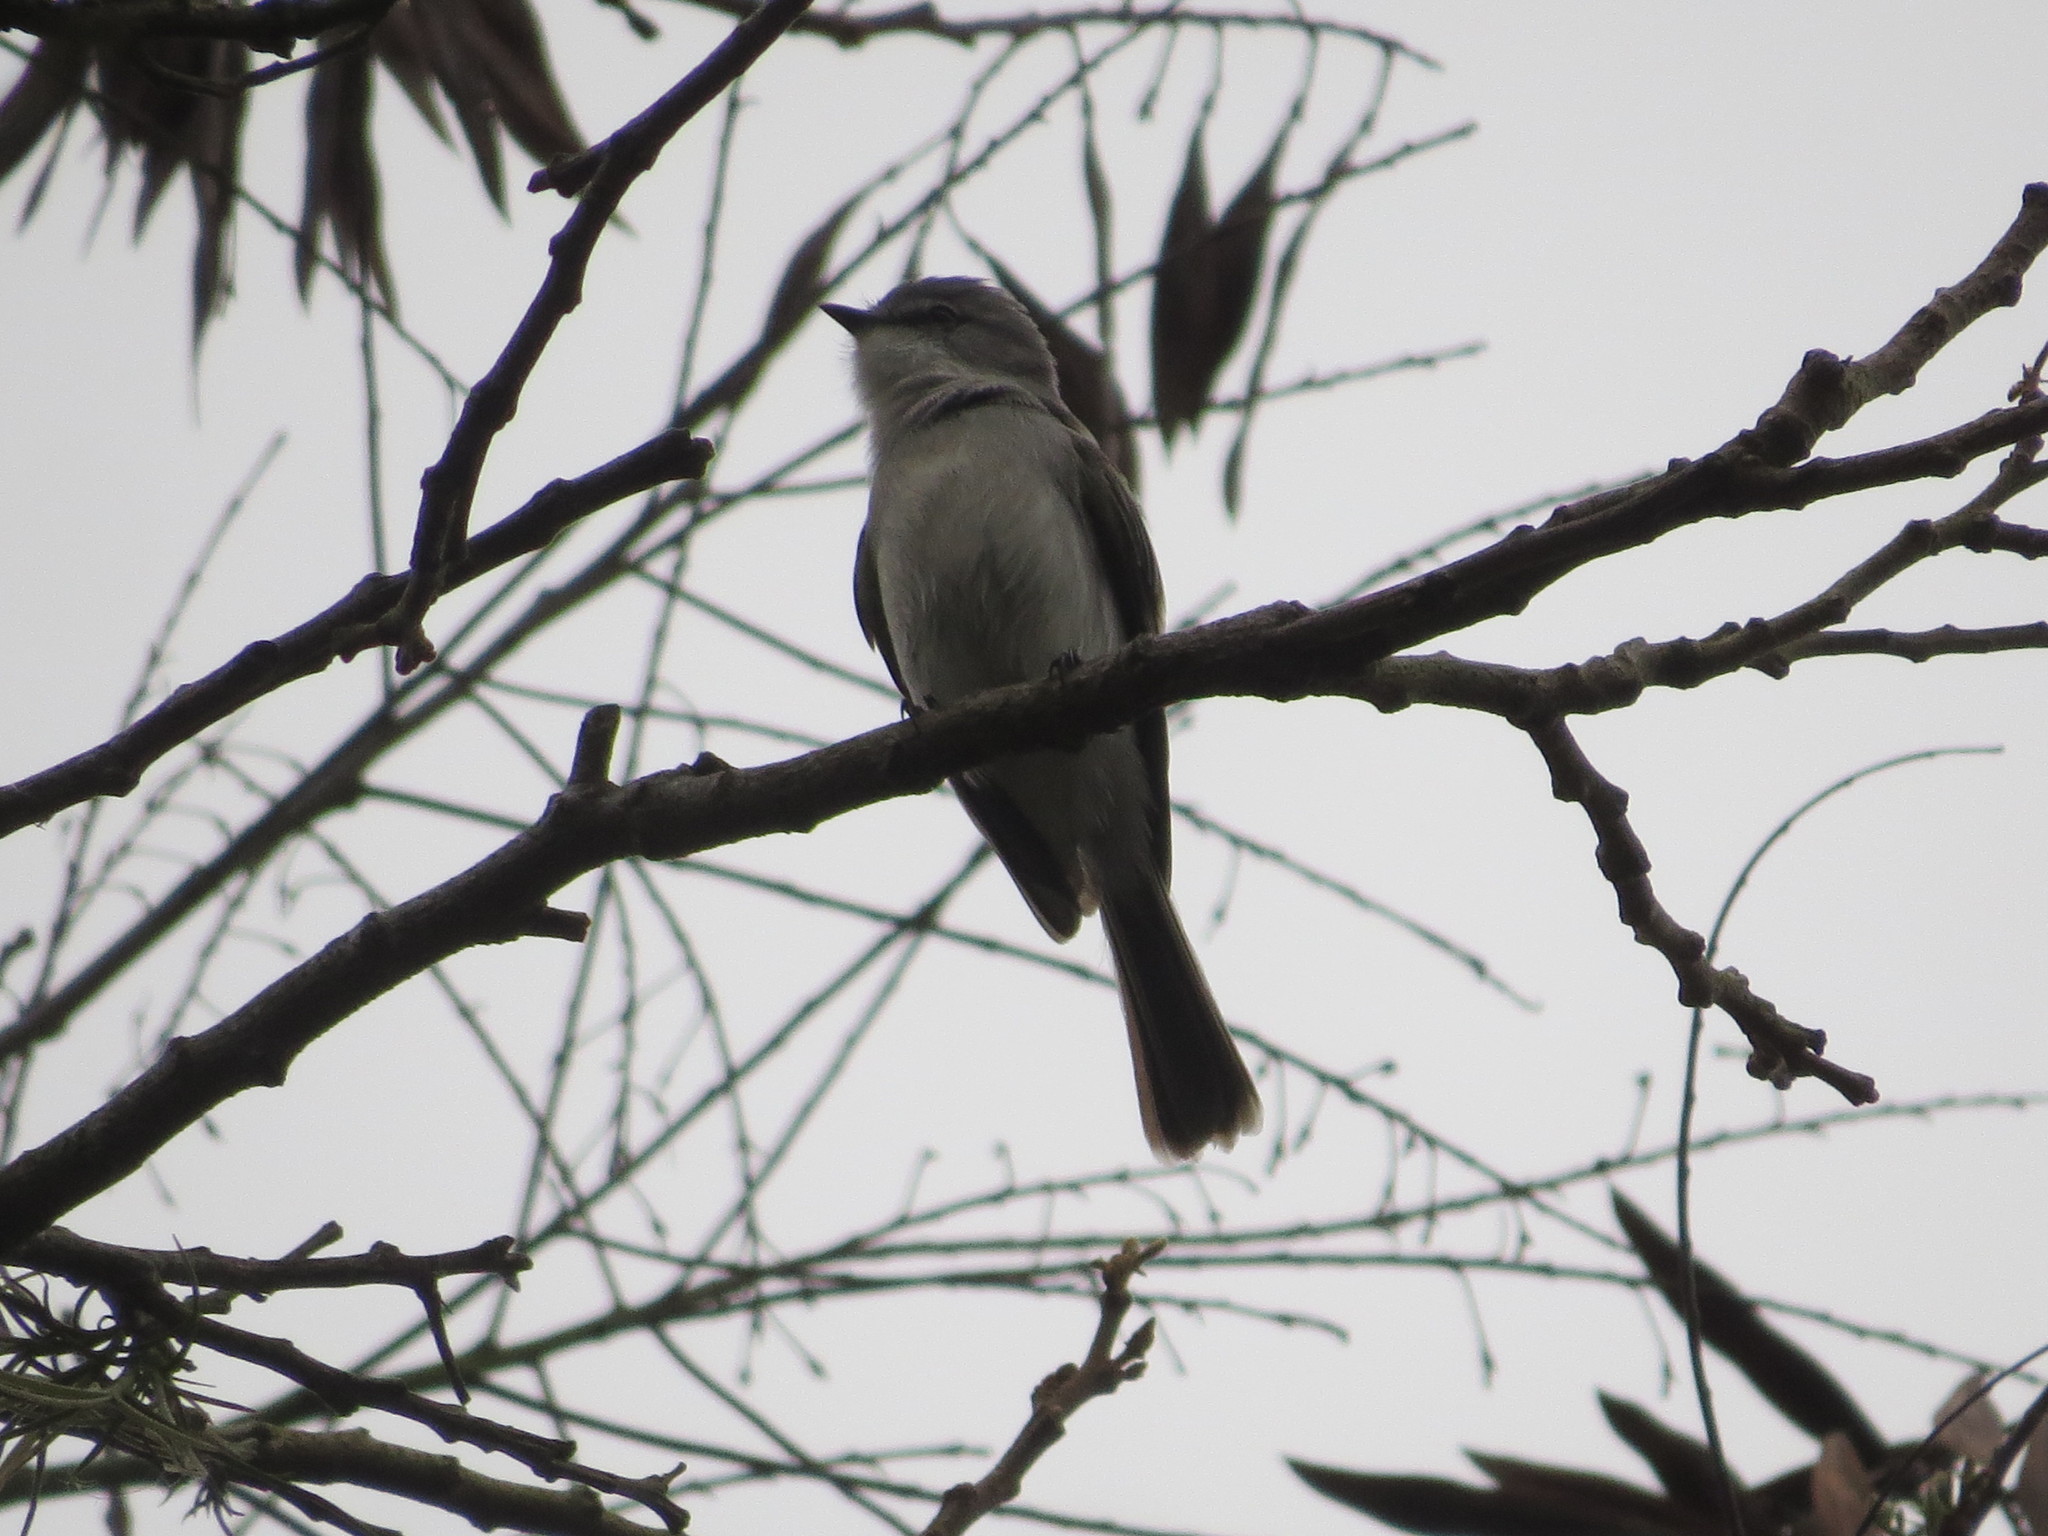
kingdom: Animalia
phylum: Chordata
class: Aves
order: Passeriformes
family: Tyrannidae
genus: Suiriri
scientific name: Suiriri suiriri
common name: Suiriri flycatcher
